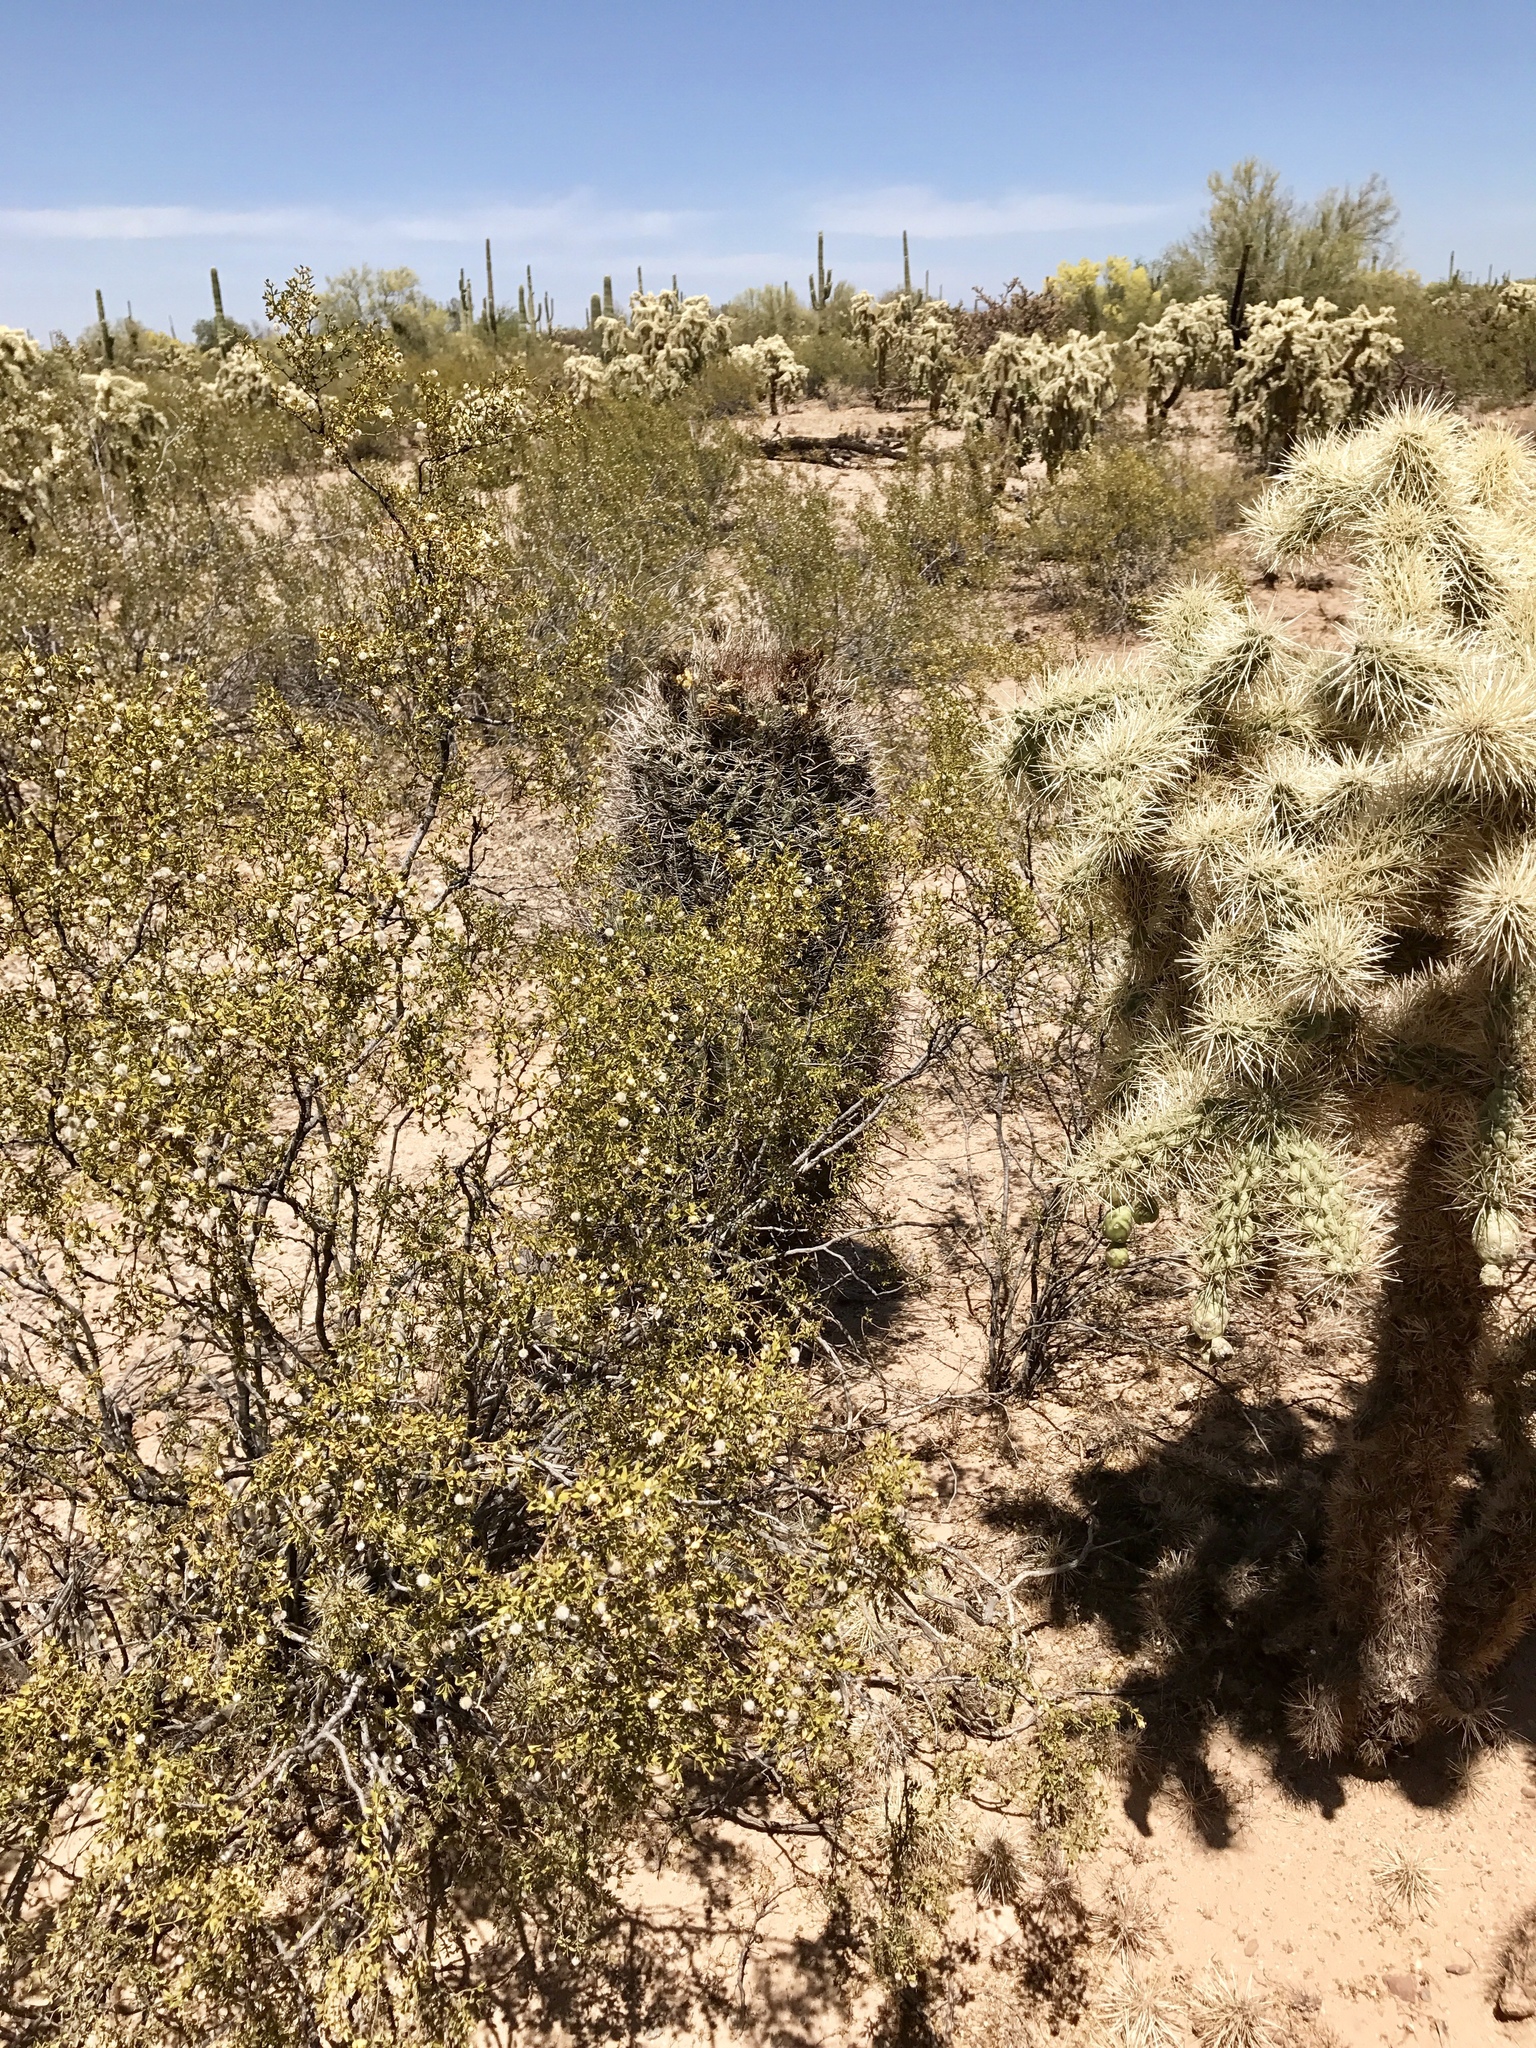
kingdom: Plantae
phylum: Tracheophyta
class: Magnoliopsida
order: Caryophyllales
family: Cactaceae
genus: Ferocactus
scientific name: Ferocactus wislizeni
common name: Candy barrel cactus
